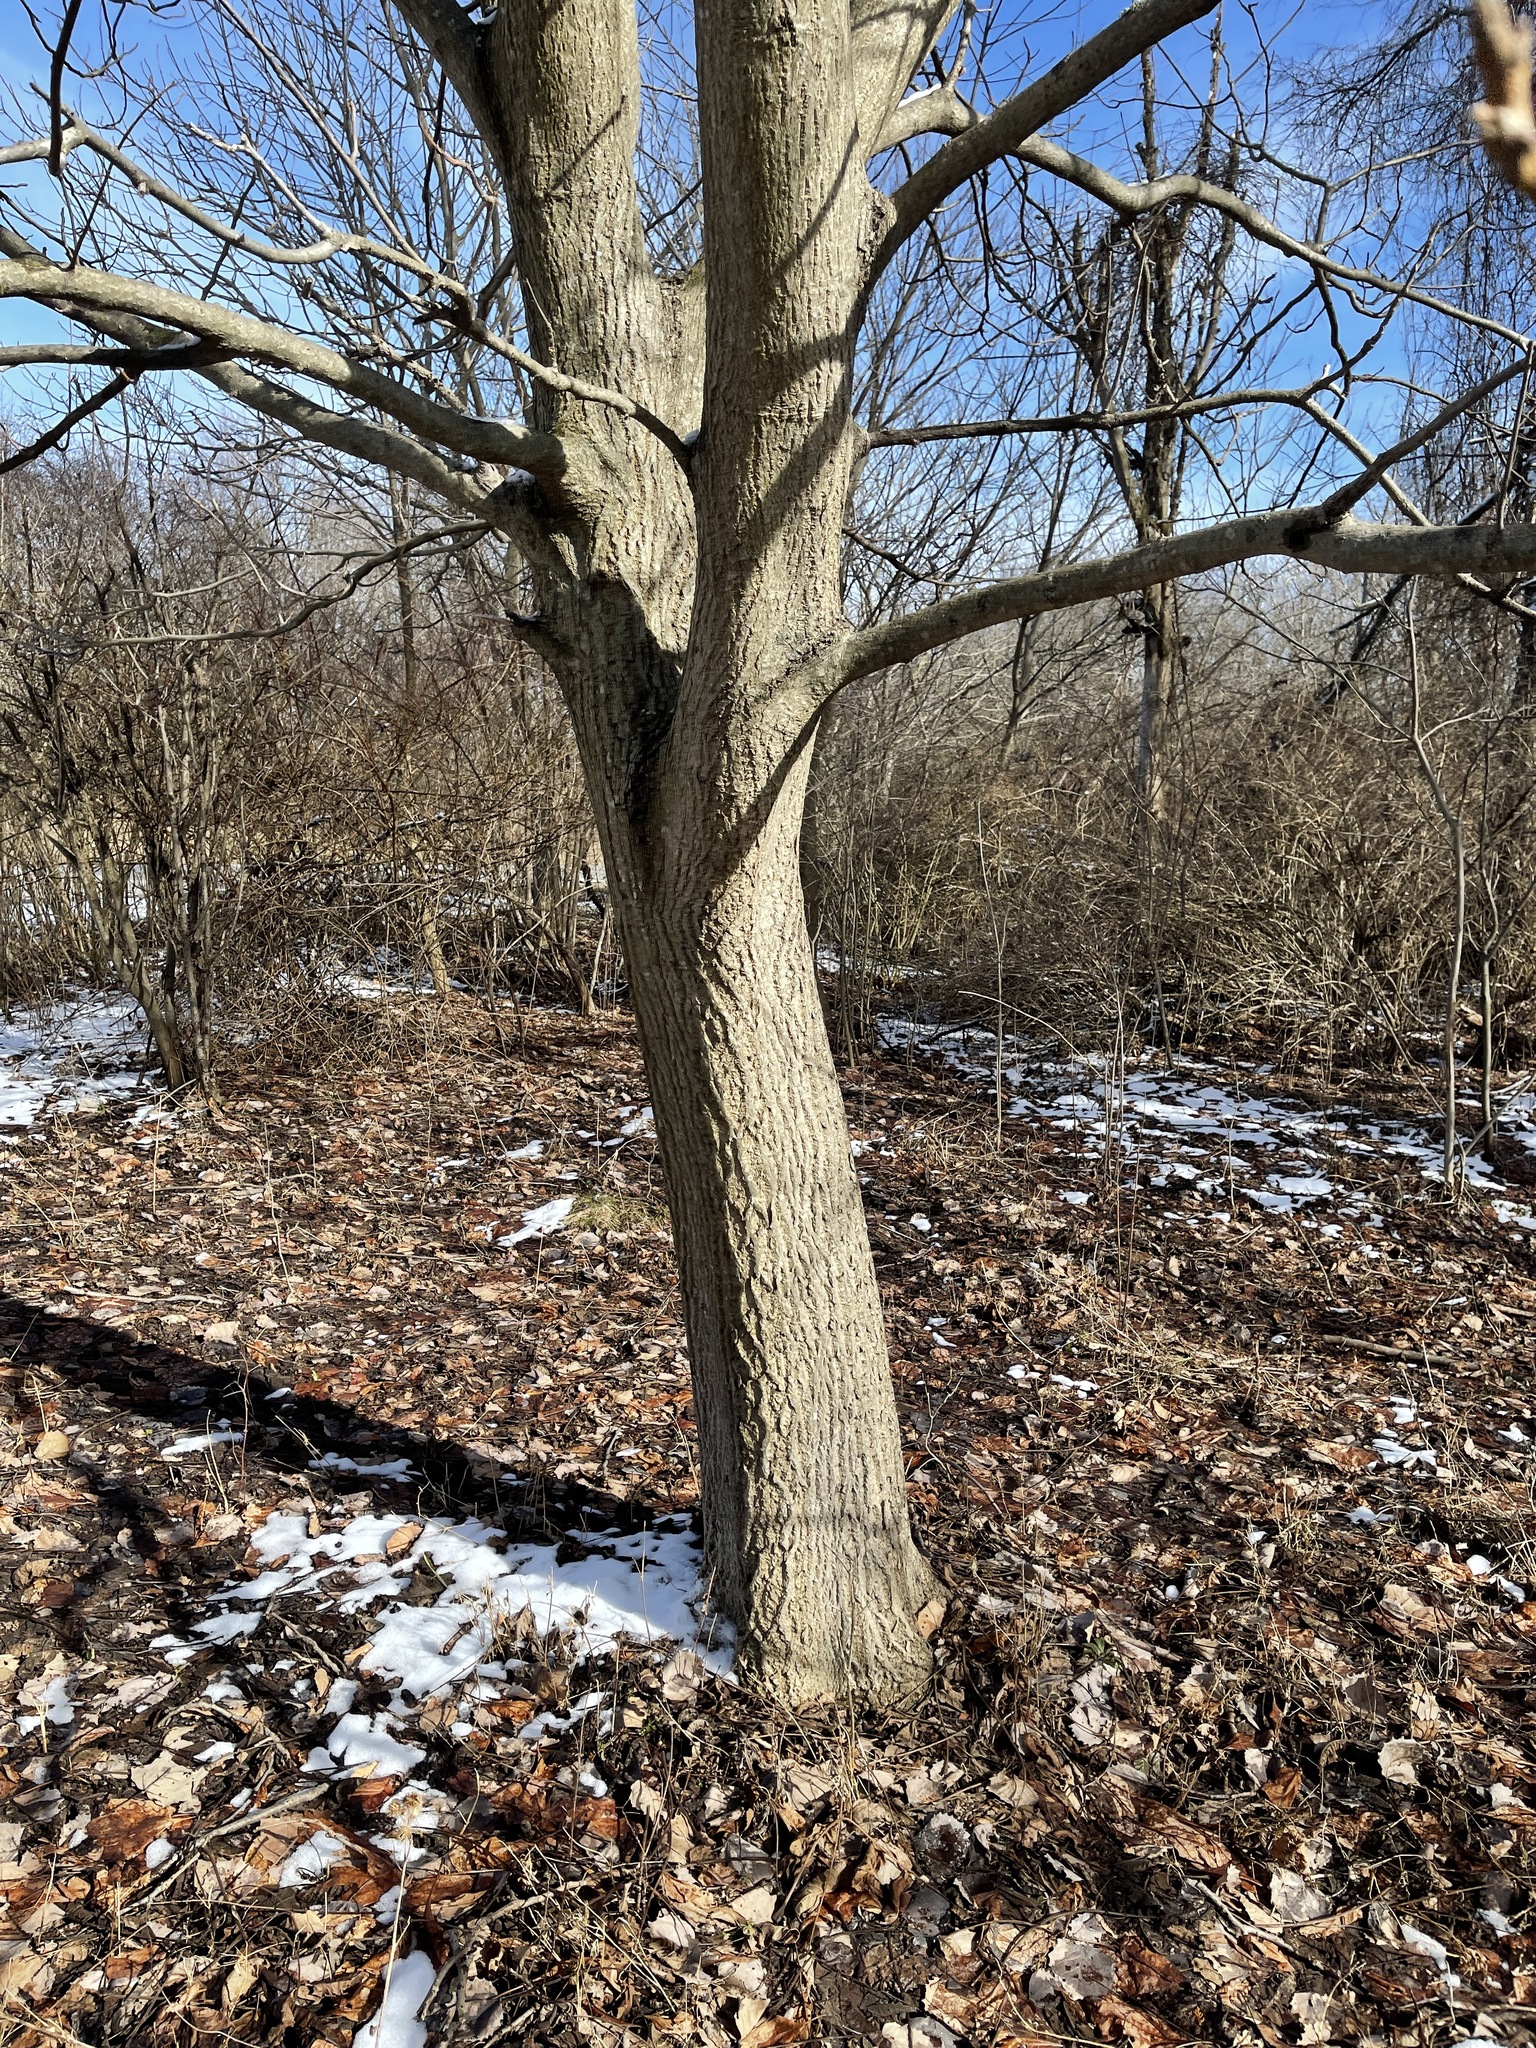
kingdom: Plantae
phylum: Tracheophyta
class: Magnoliopsida
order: Fagales
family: Juglandaceae
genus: Juglans
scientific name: Juglans cinerea
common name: Butternut
